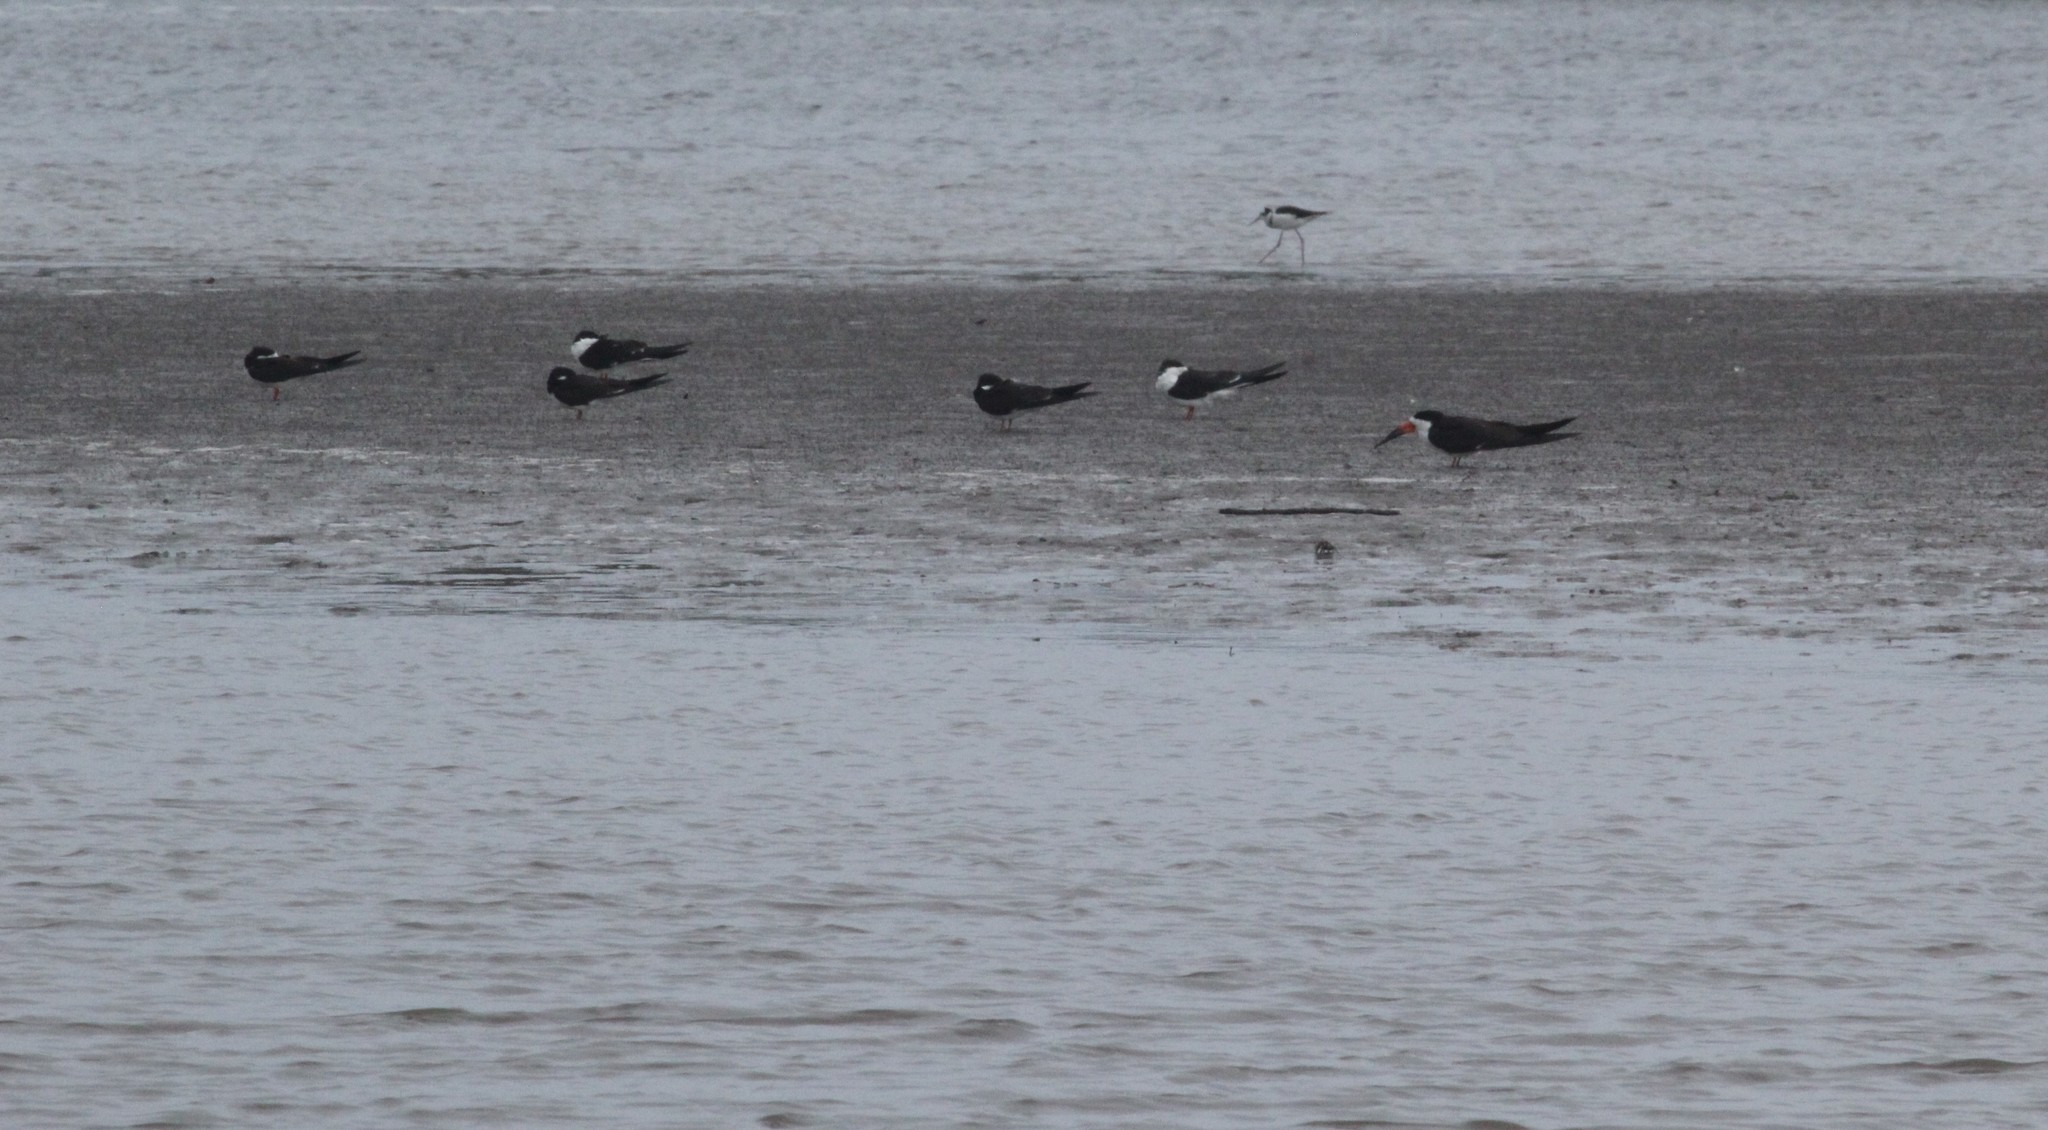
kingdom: Animalia
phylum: Chordata
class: Aves
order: Charadriiformes
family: Laridae
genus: Rynchops
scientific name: Rynchops niger
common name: Black skimmer
